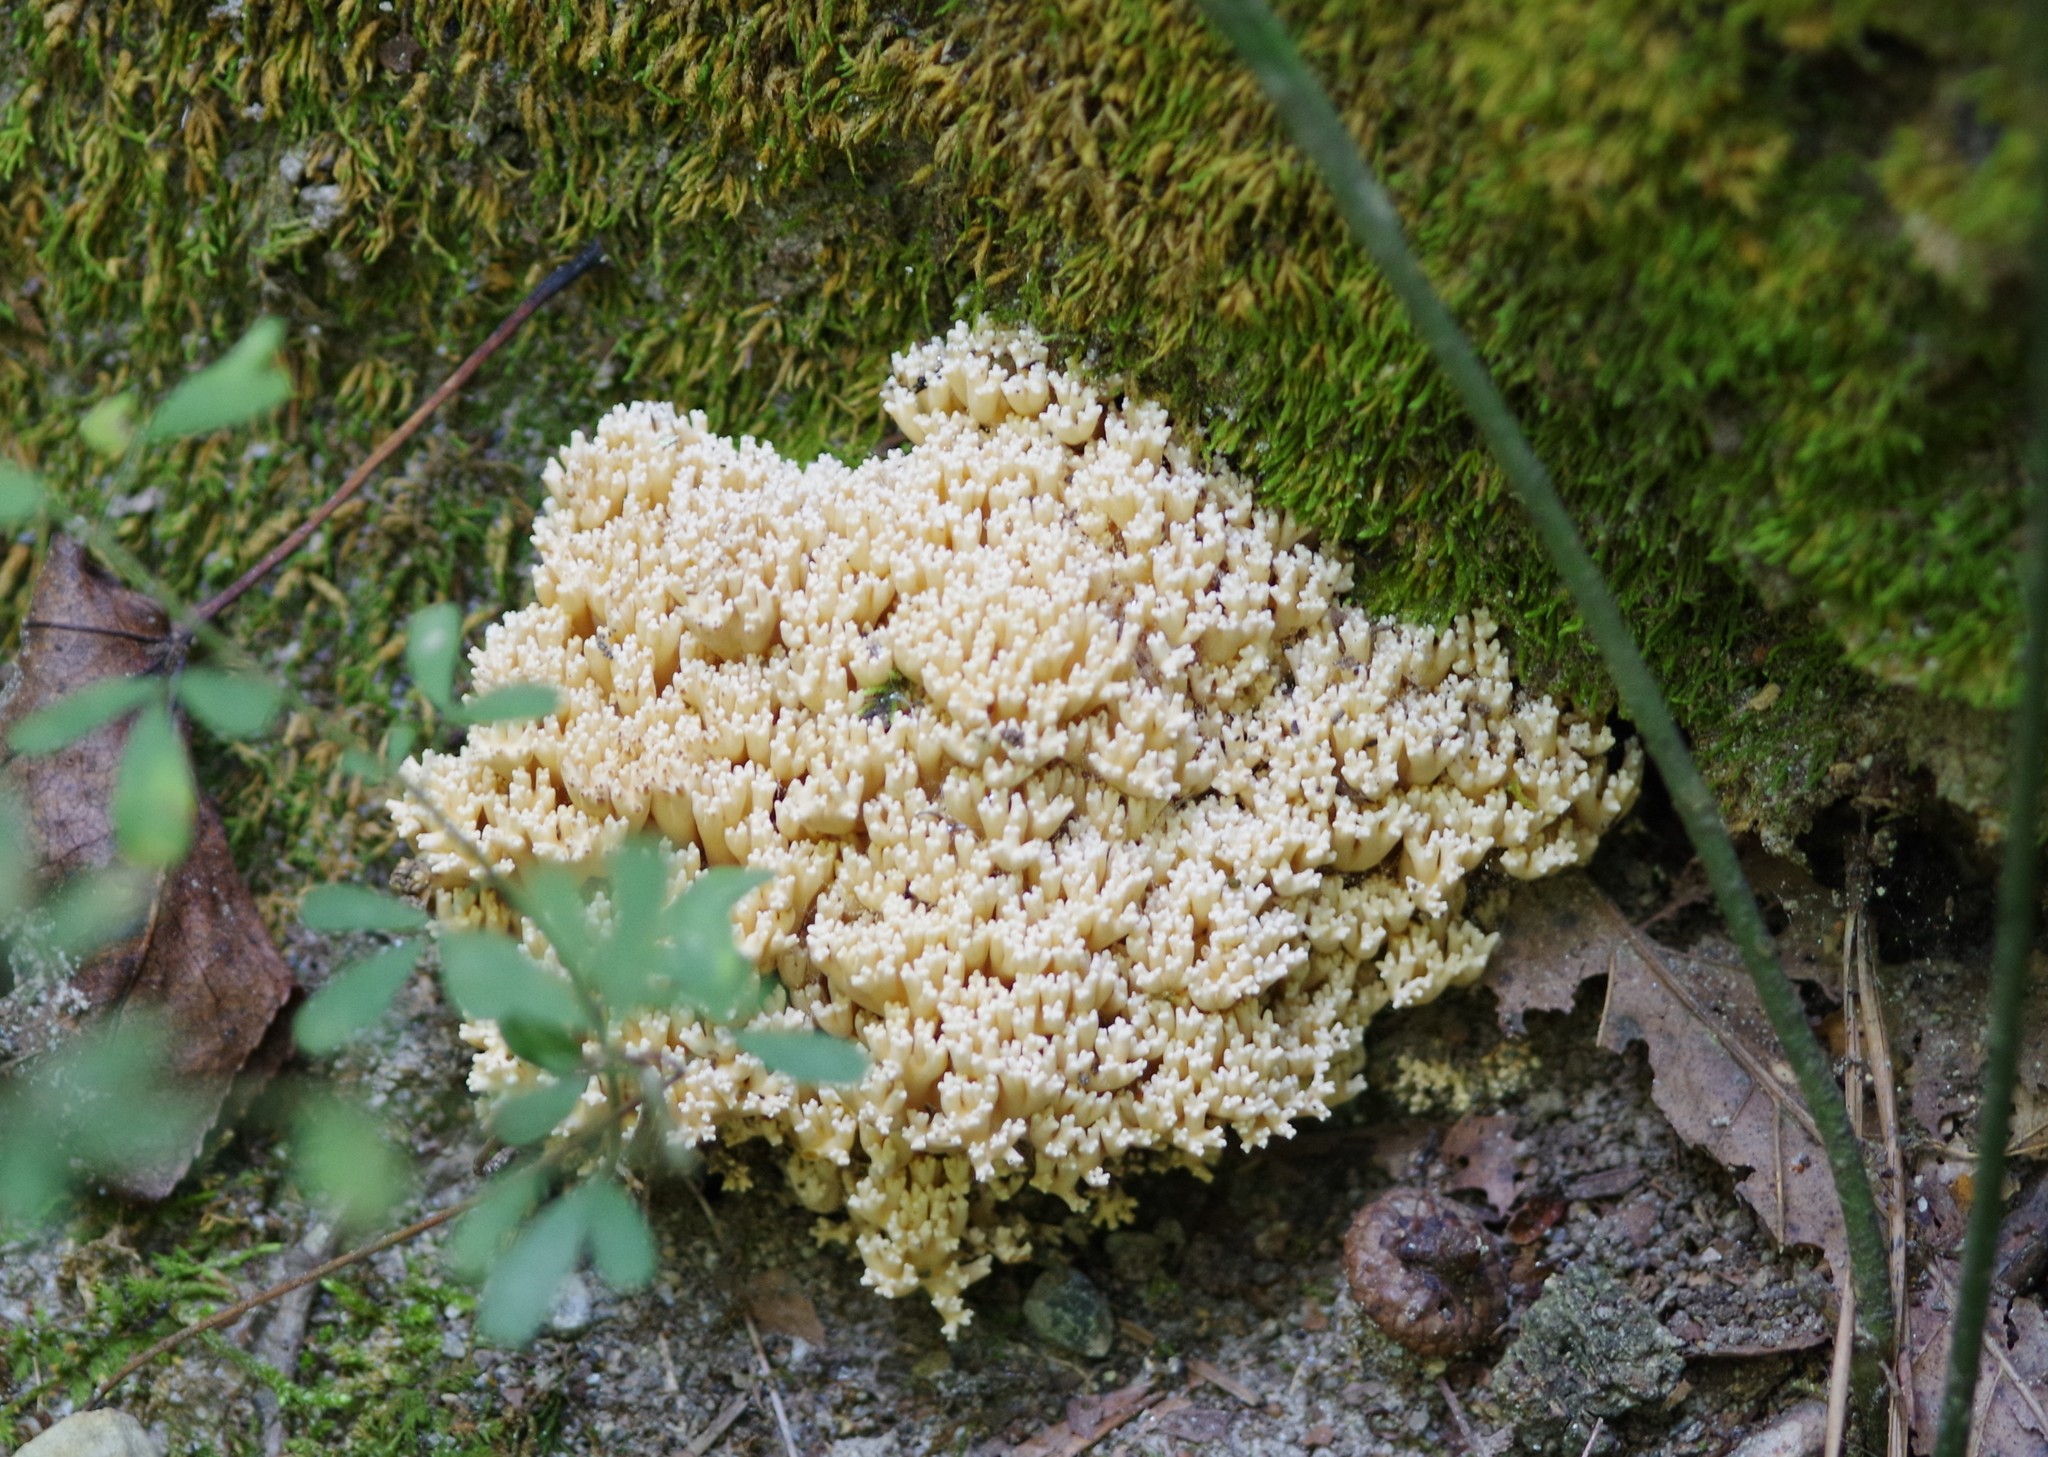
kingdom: Fungi
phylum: Basidiomycota
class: Agaricomycetes
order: Russulales
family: Auriscalpiaceae
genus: Artomyces
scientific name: Artomyces pyxidatus
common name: Crown-tipped coral fungus
